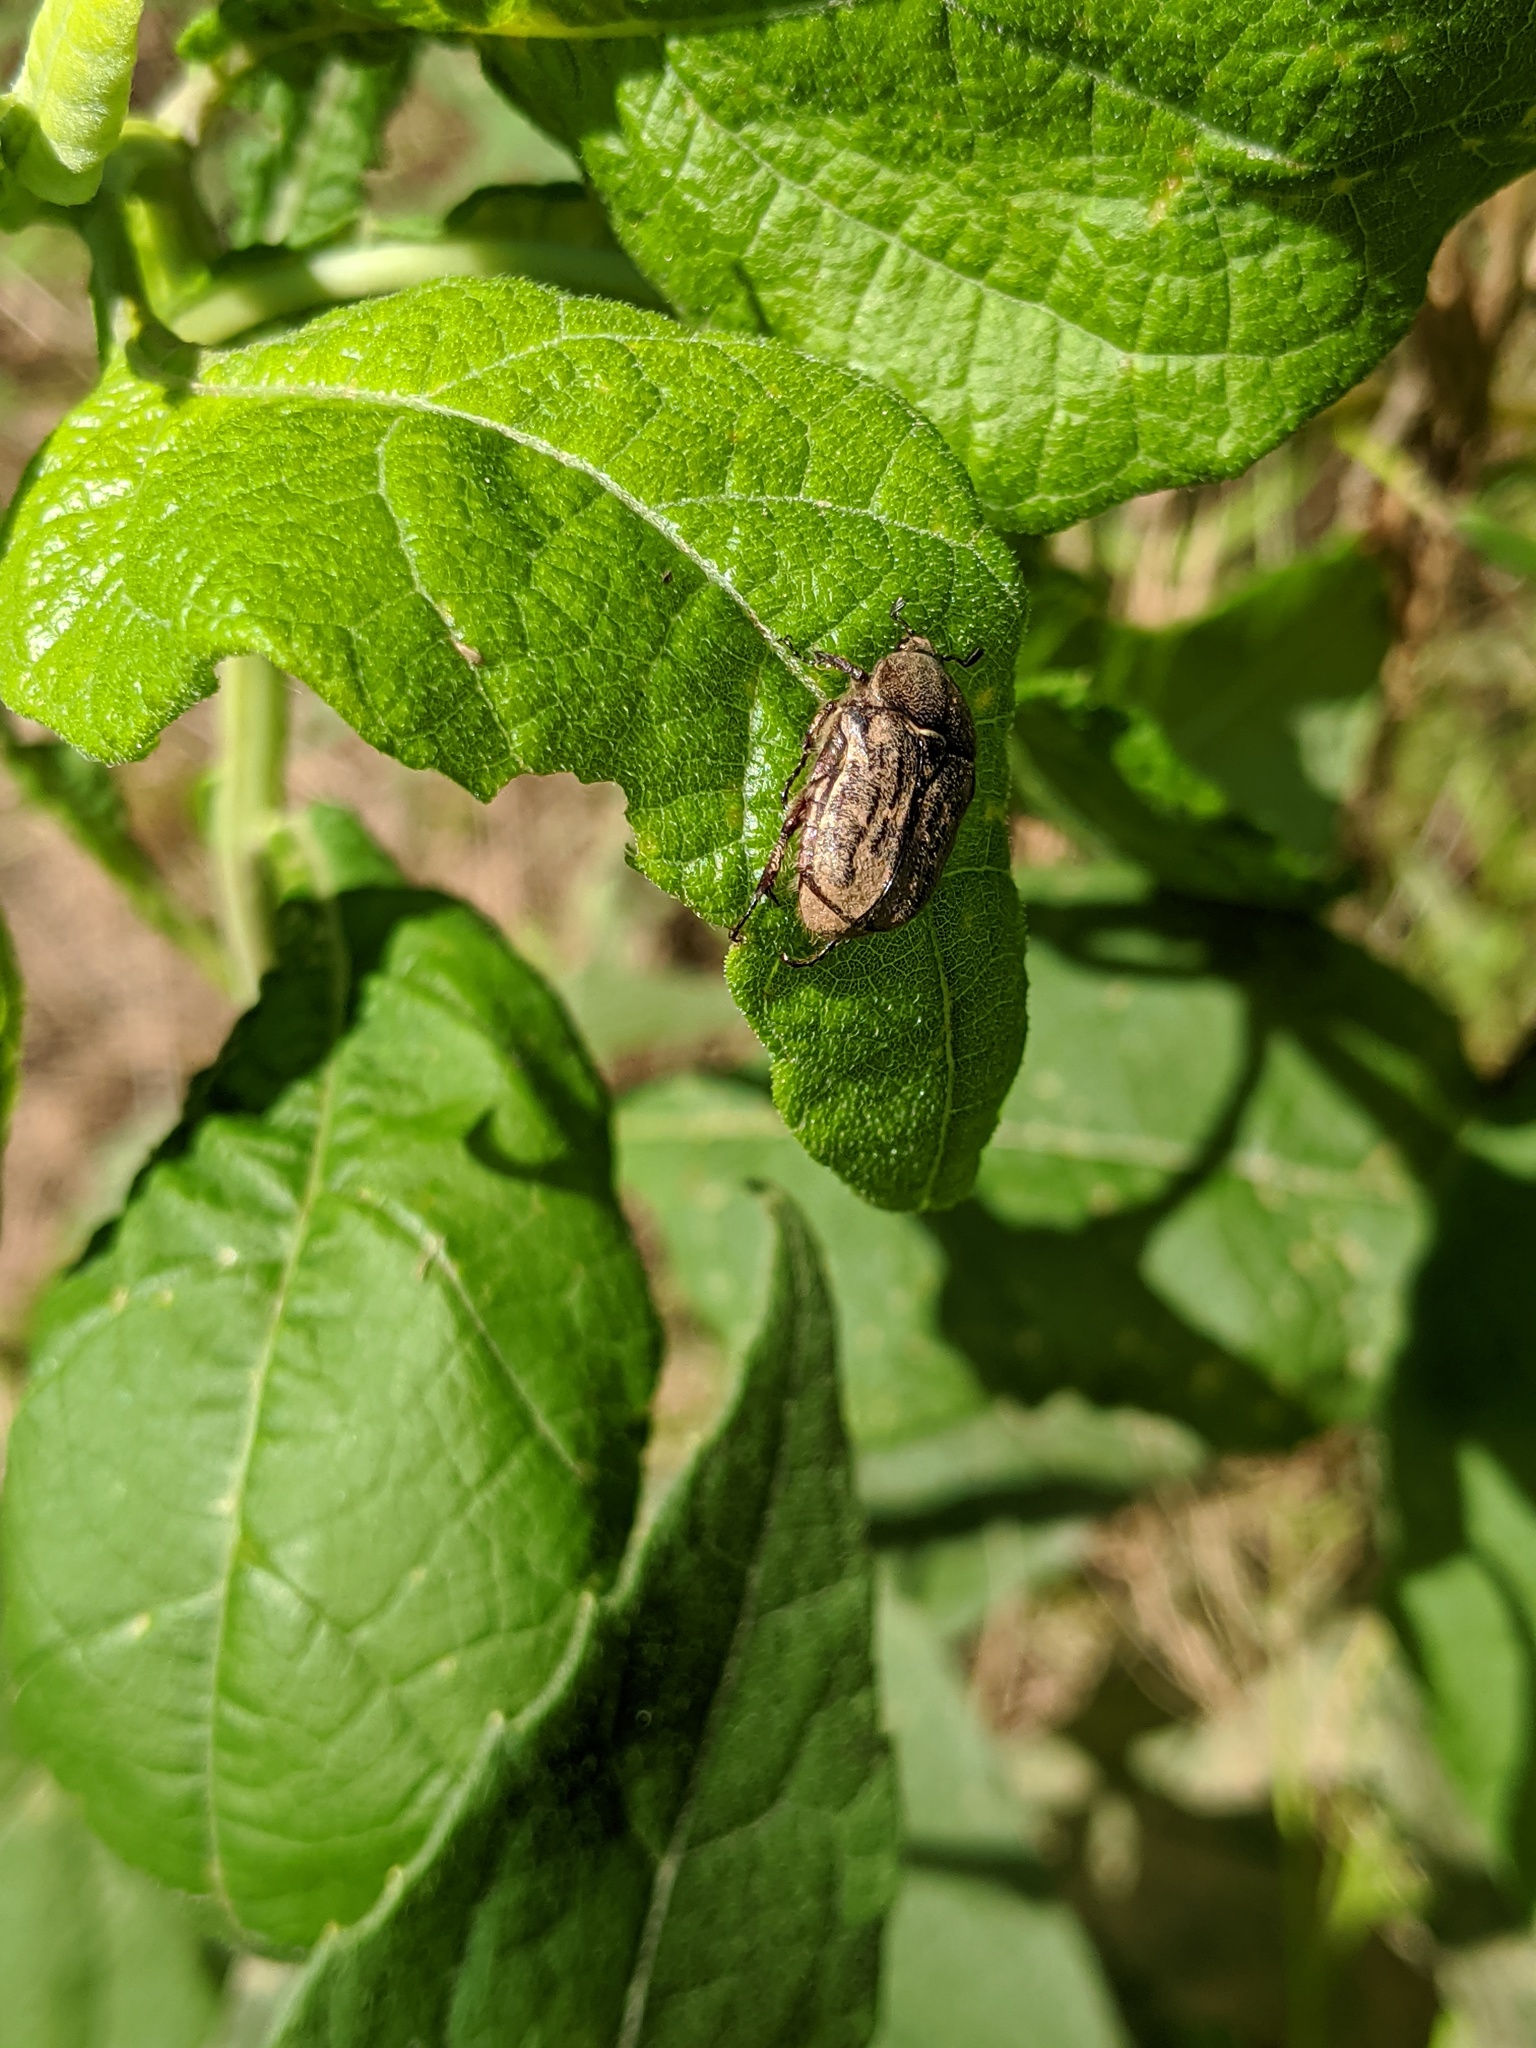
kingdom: Animalia
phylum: Arthropoda
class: Insecta
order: Coleoptera
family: Scarabaeidae
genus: Euphoria
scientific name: Euphoria sepulcralis
